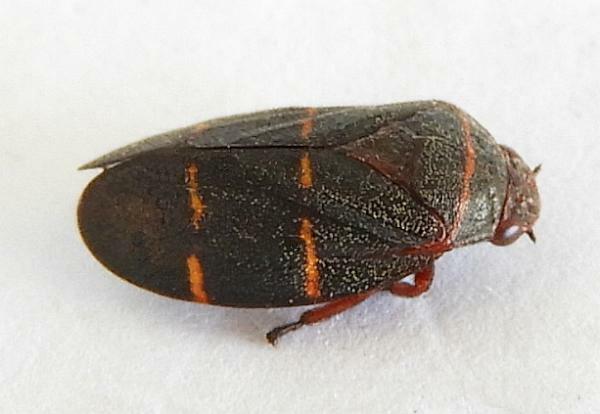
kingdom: Animalia
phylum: Arthropoda
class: Insecta
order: Hemiptera
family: Cercopidae
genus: Prosapia
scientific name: Prosapia bicincta
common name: Twolined spittlebug
